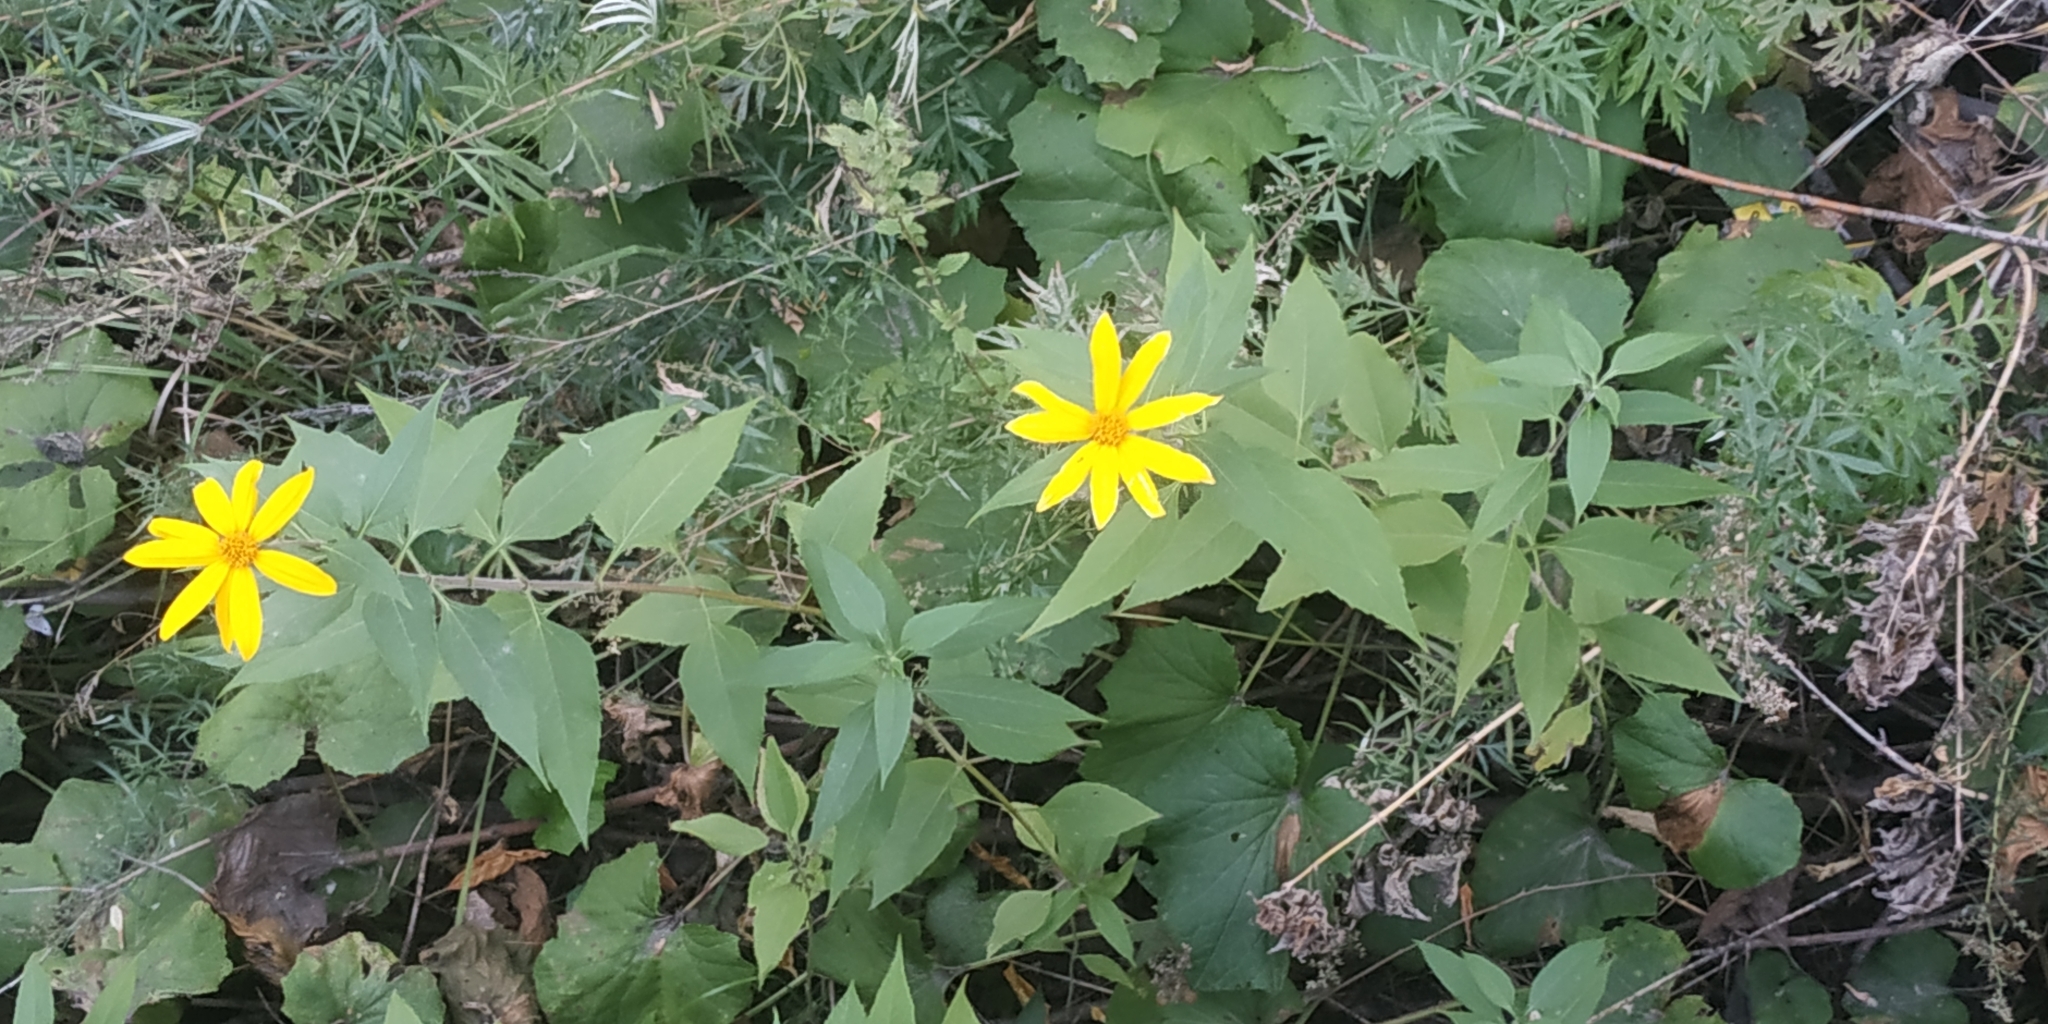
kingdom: Plantae
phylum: Tracheophyta
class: Magnoliopsida
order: Asterales
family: Asteraceae
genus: Helianthus
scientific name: Helianthus tuberosus
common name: Jerusalem artichoke
